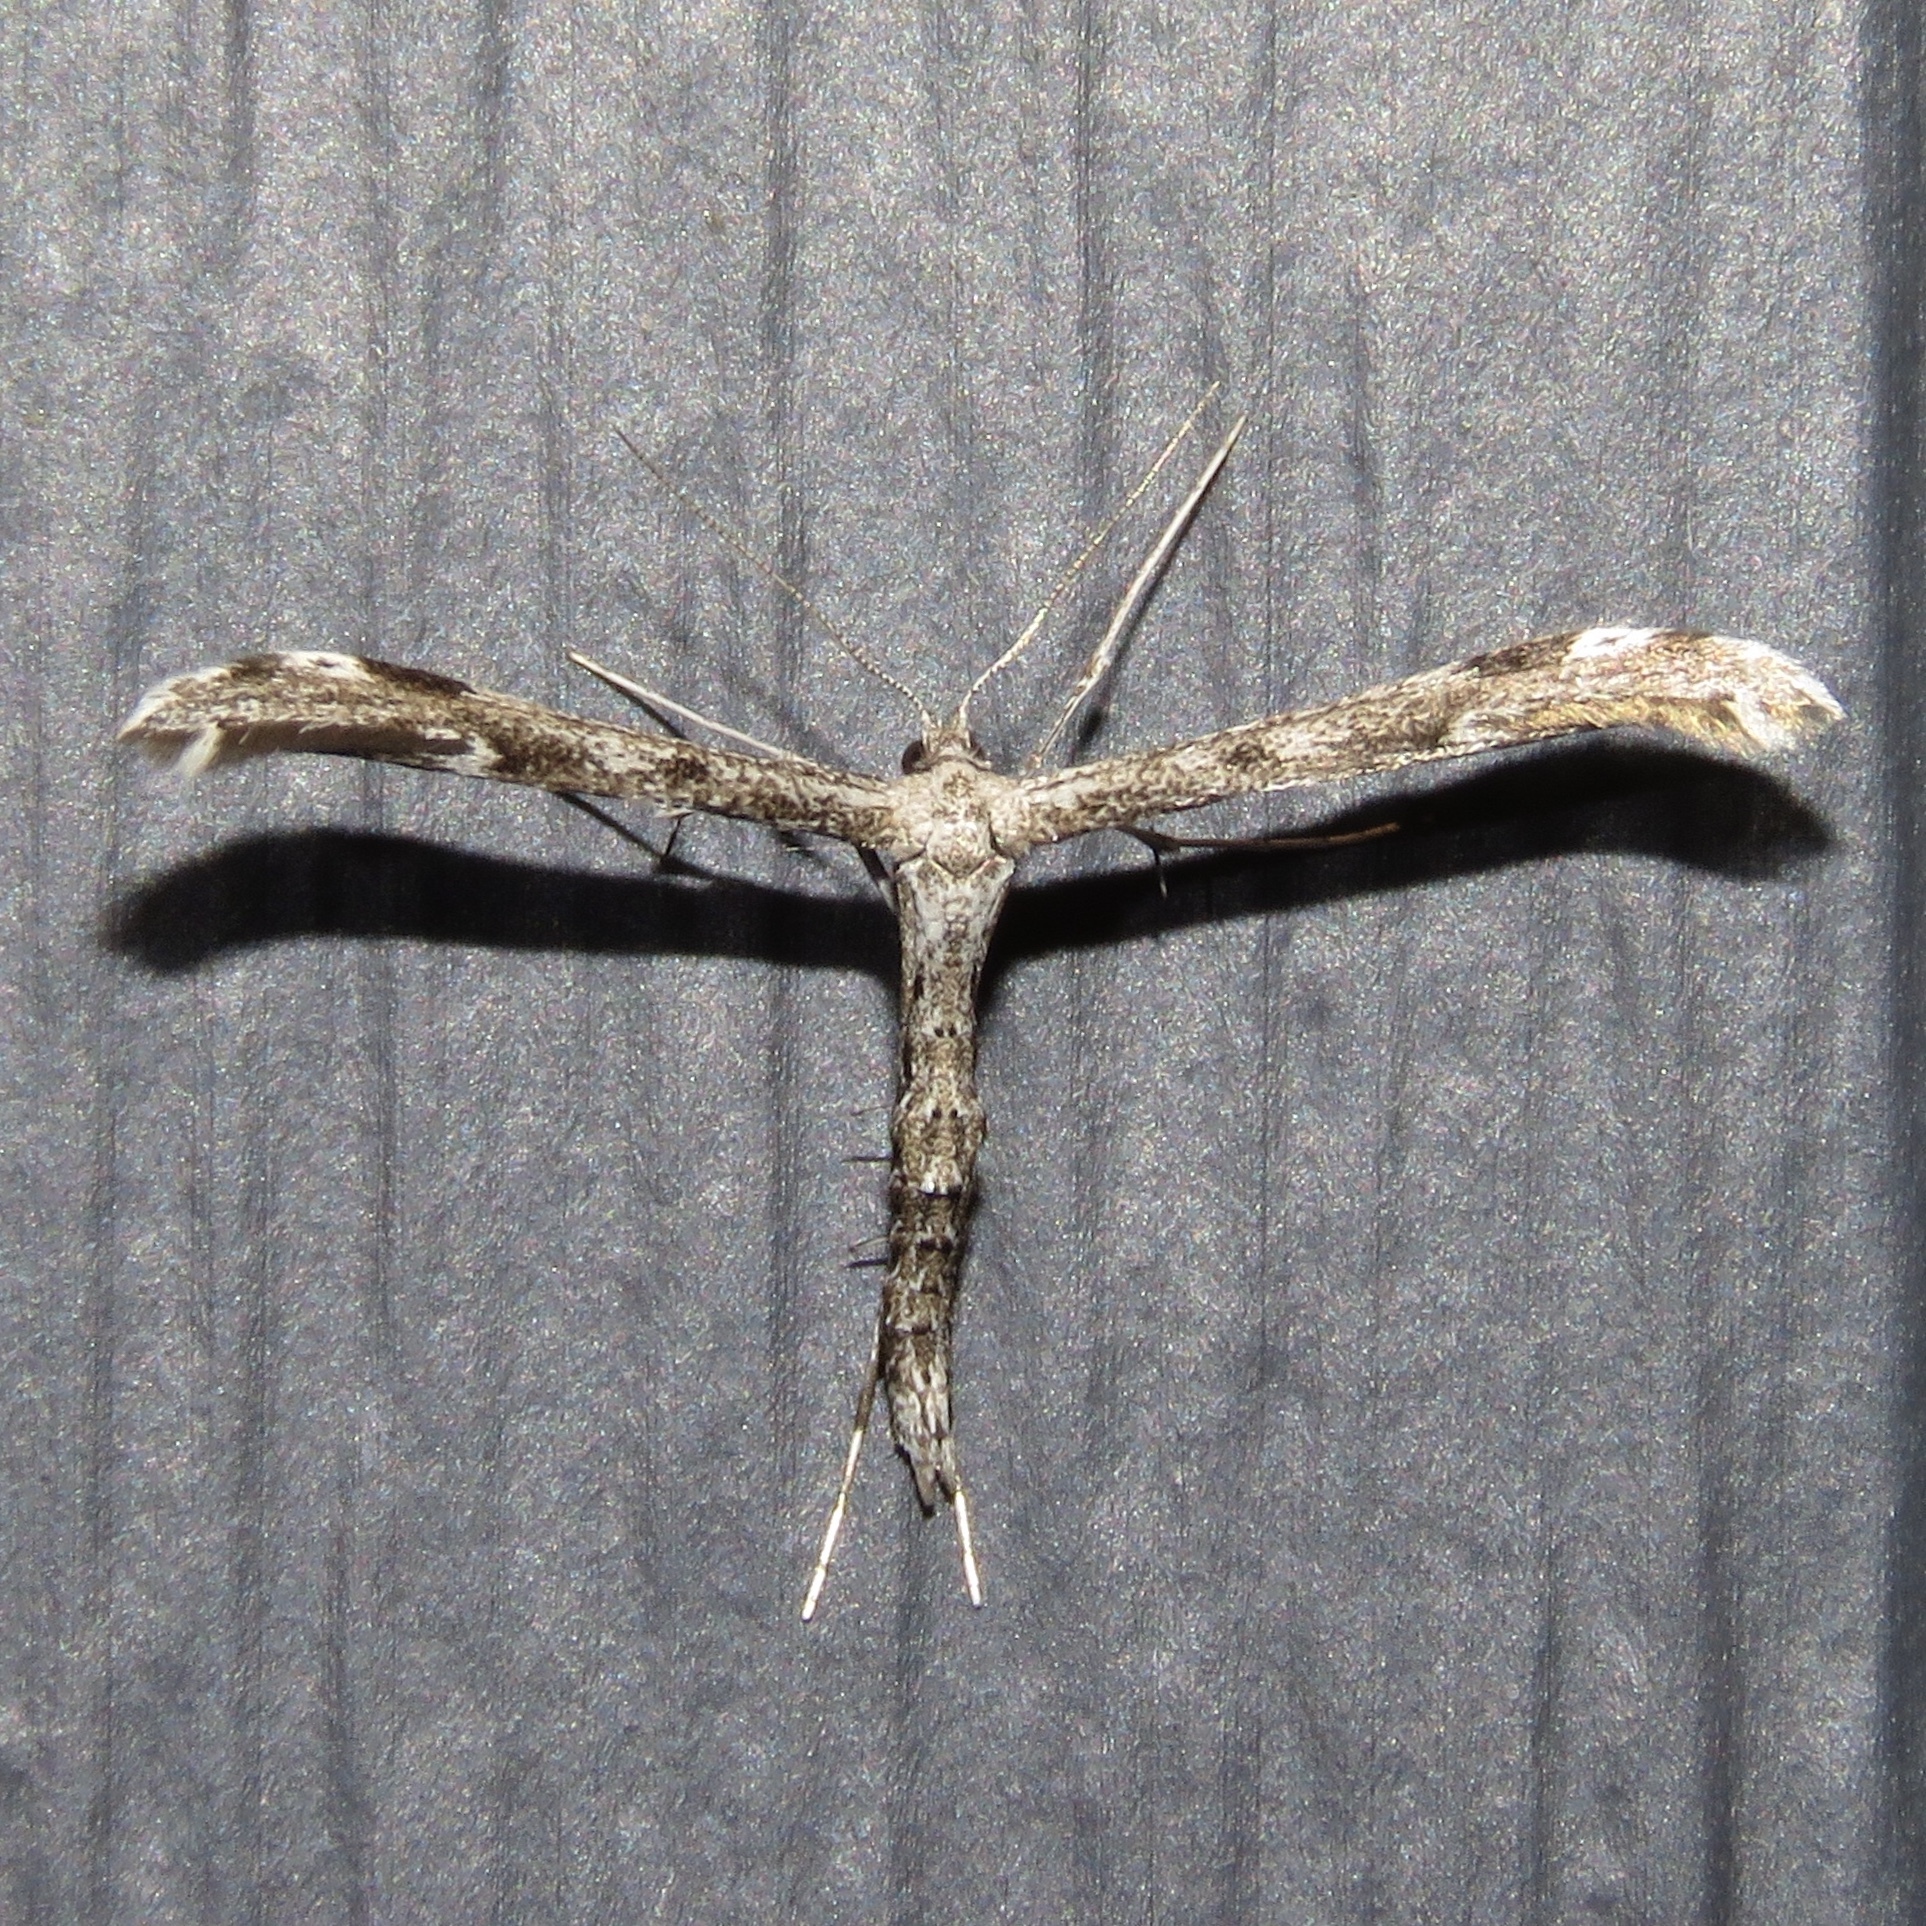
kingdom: Animalia
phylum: Arthropoda
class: Insecta
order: Lepidoptera
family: Pterophoridae
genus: Hellinsia
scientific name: Hellinsia inquinatus
